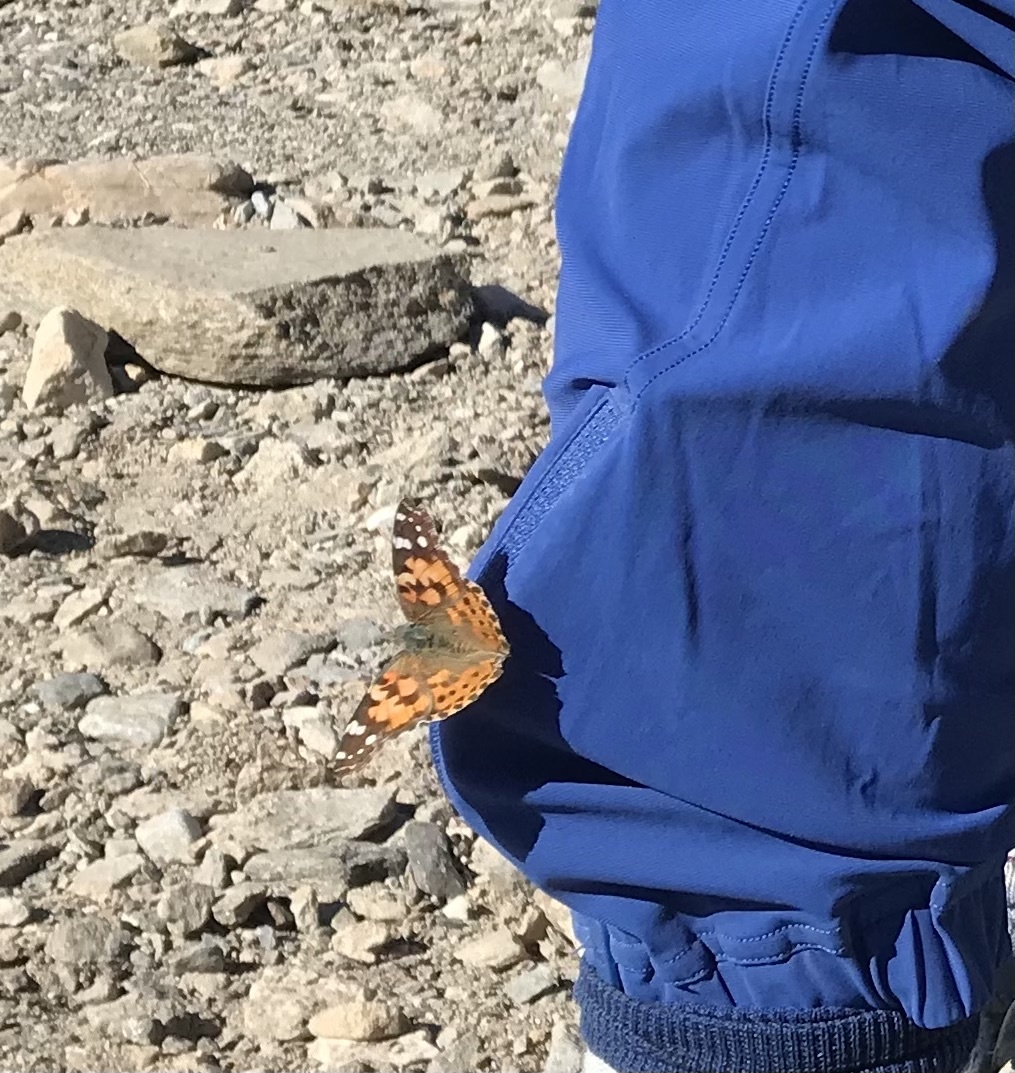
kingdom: Animalia
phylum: Arthropoda
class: Insecta
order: Lepidoptera
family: Nymphalidae
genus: Vanessa
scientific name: Vanessa cardui
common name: Painted lady
